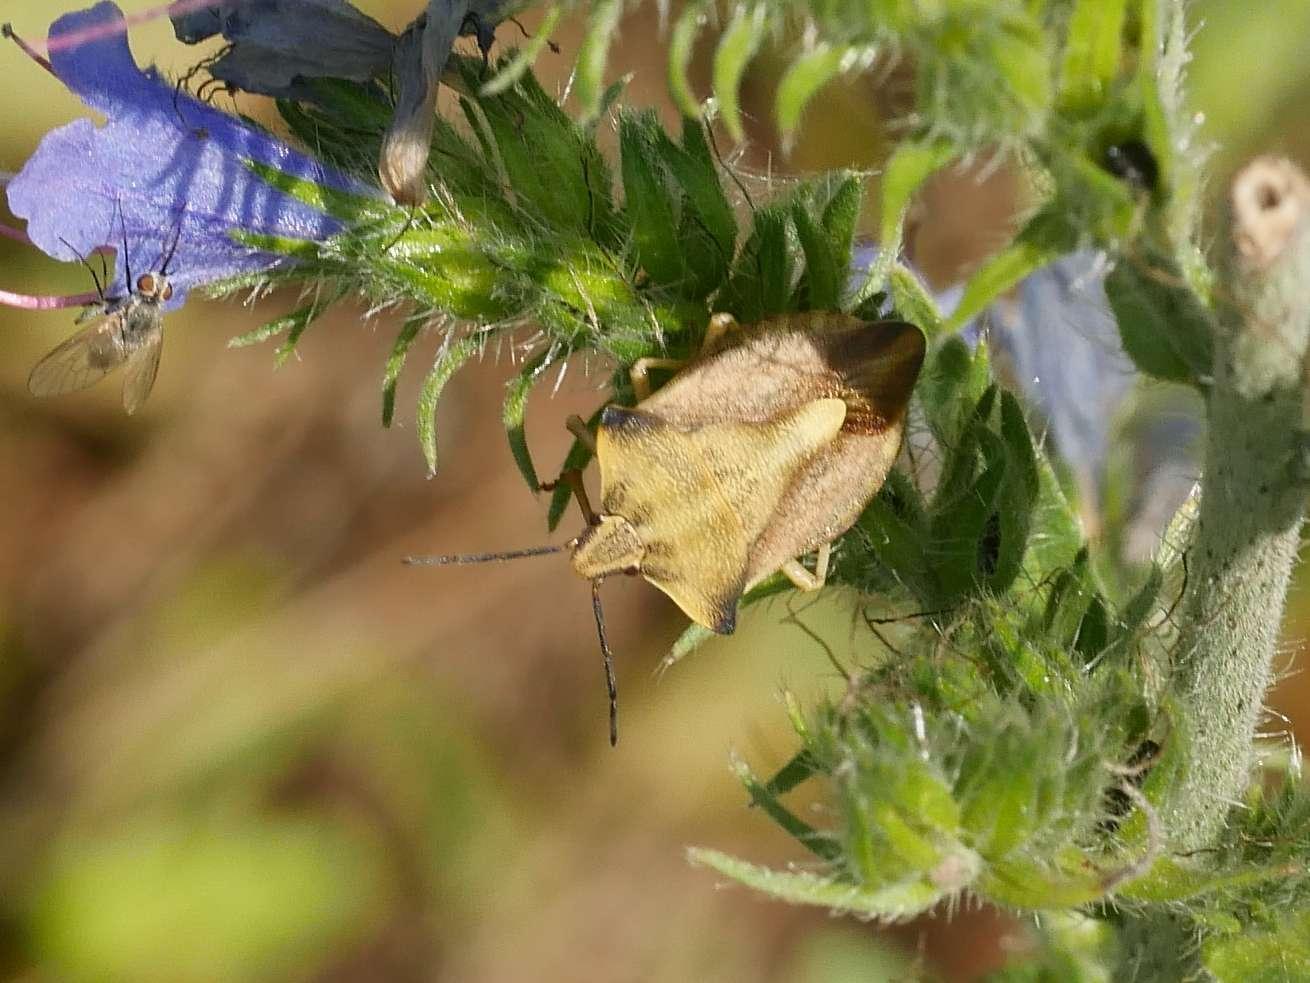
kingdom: Animalia
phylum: Arthropoda
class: Insecta
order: Hemiptera
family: Pentatomidae
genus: Carpocoris
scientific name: Carpocoris fuscispinus
